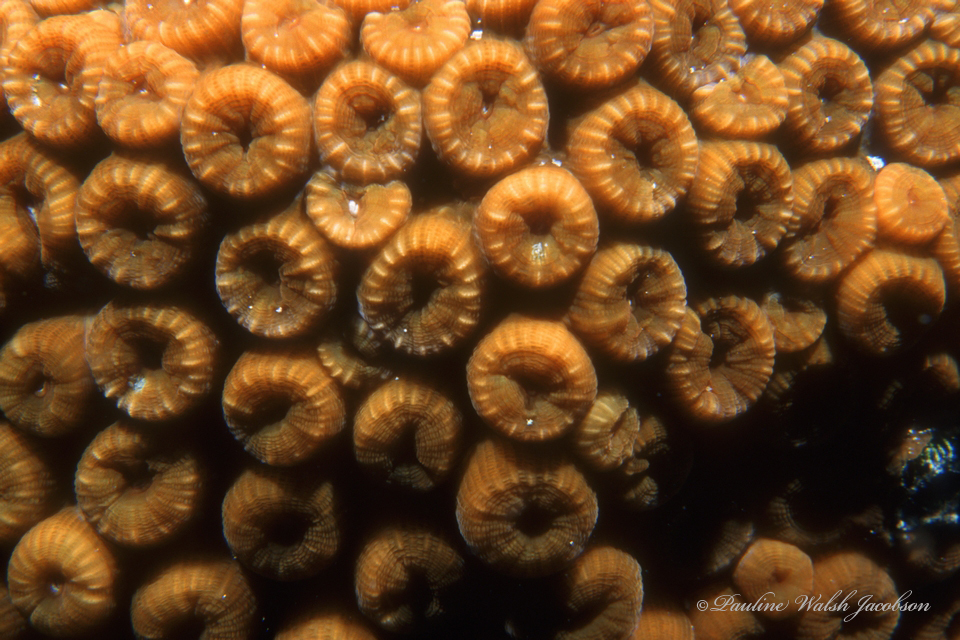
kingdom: Animalia
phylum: Cnidaria
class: Anthozoa
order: Scleractinia
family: Montastraeidae
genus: Montastraea
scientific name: Montastraea cavernosa
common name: Great star coral
